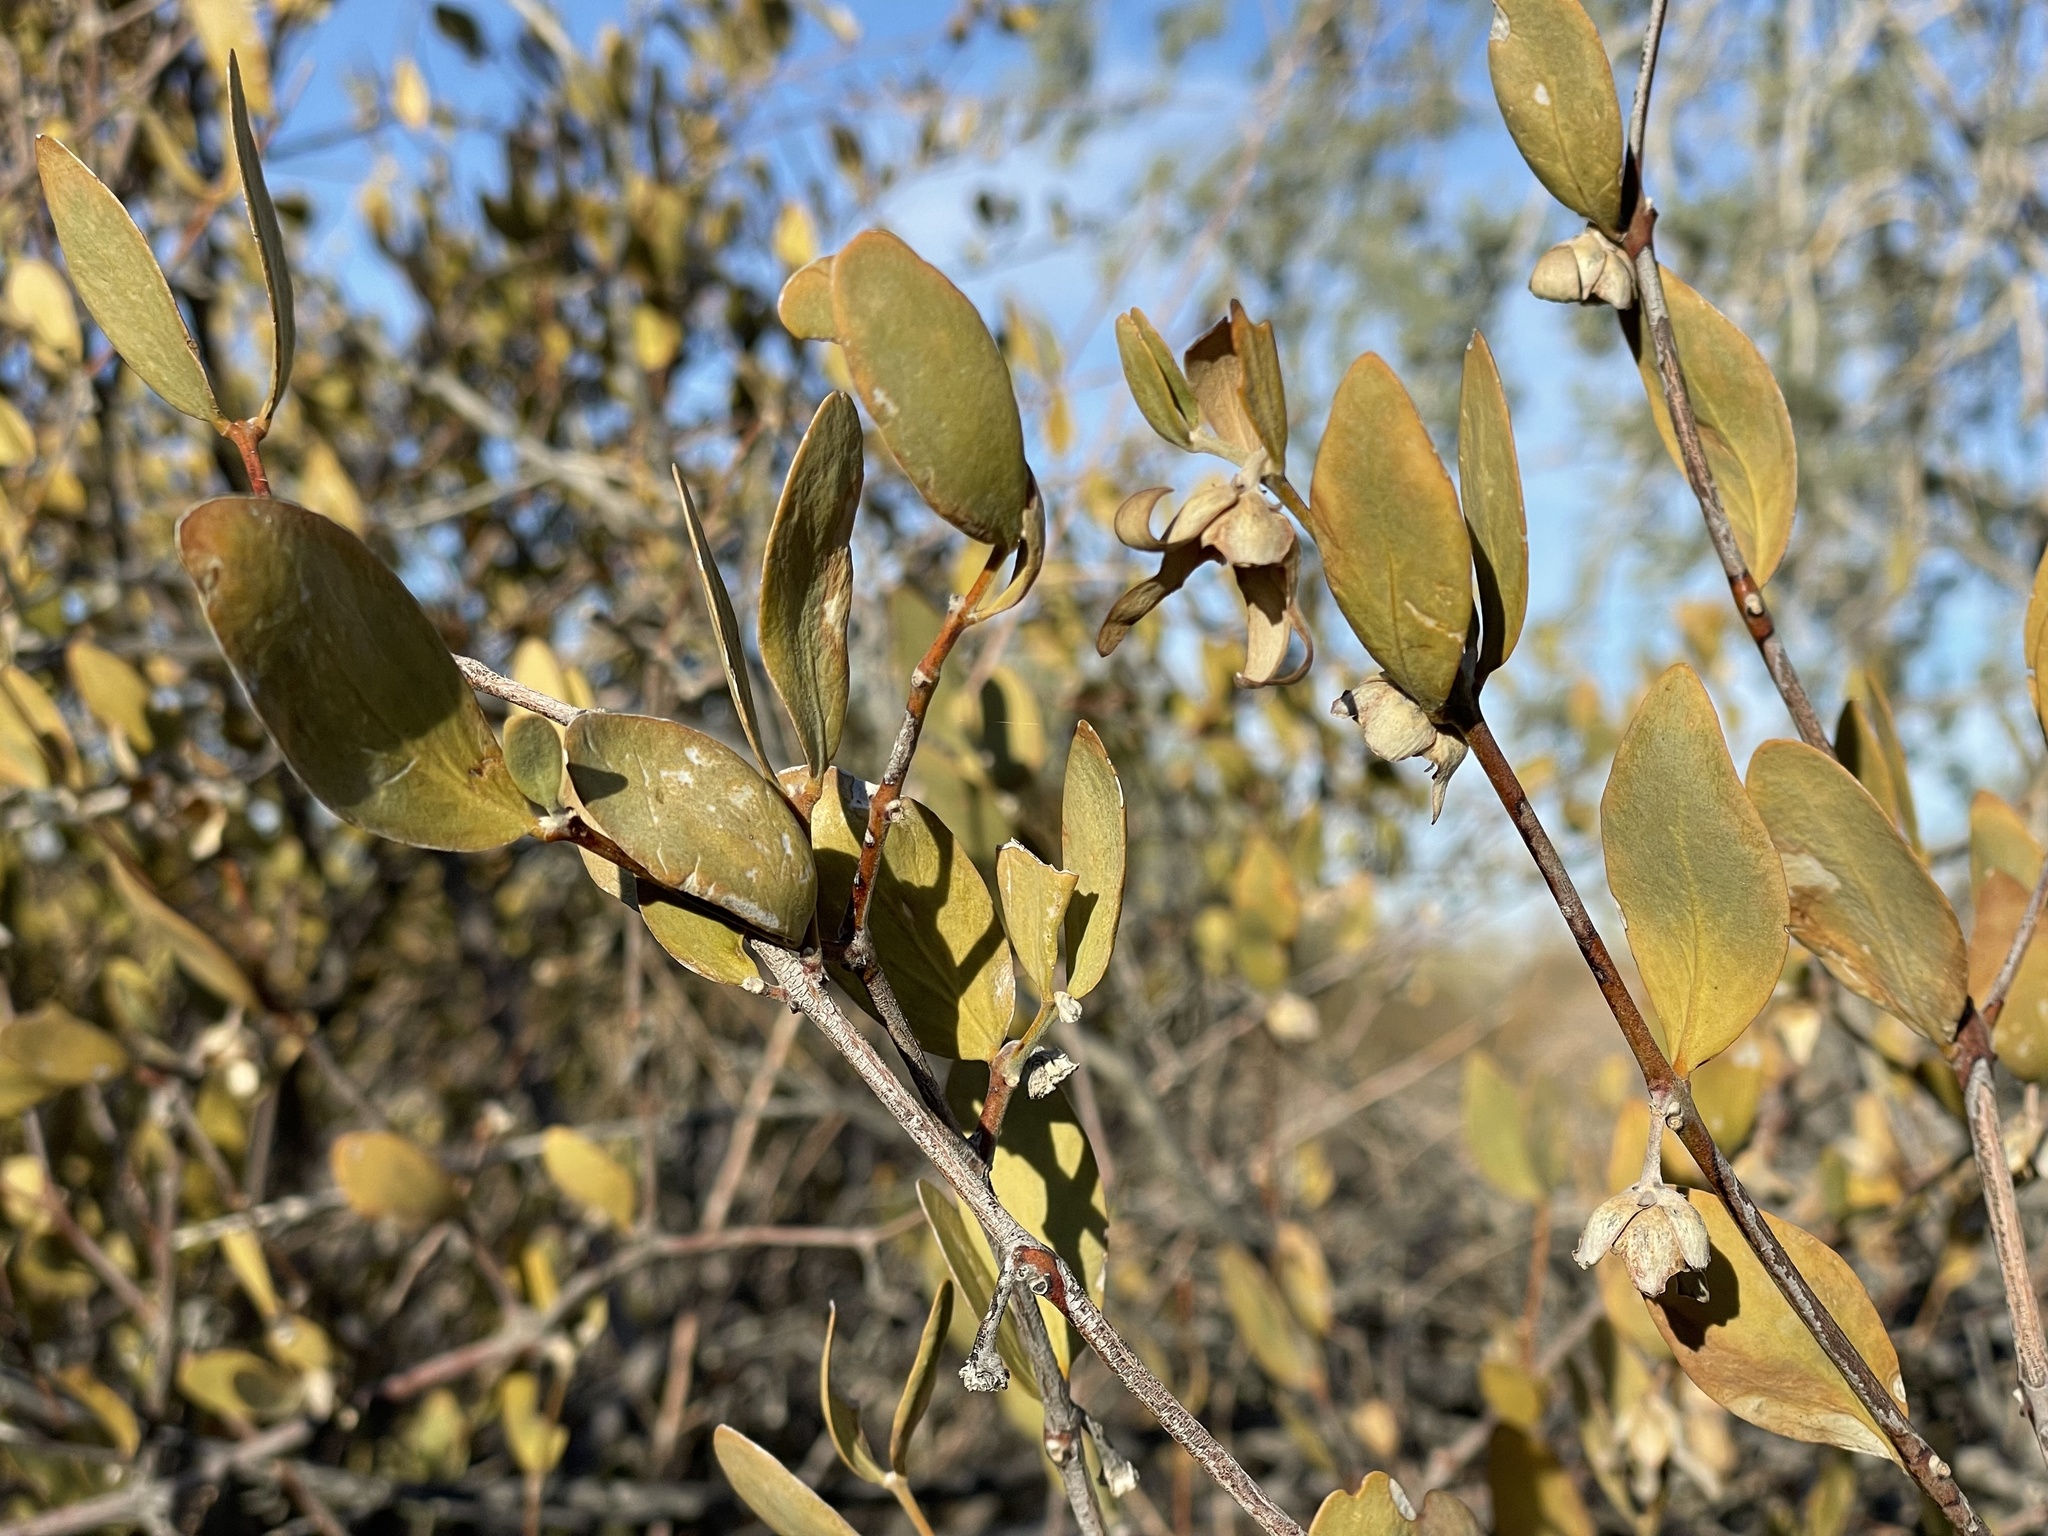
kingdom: Plantae
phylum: Tracheophyta
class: Magnoliopsida
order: Caryophyllales
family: Simmondsiaceae
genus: Simmondsia
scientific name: Simmondsia chinensis
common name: Jojoba
